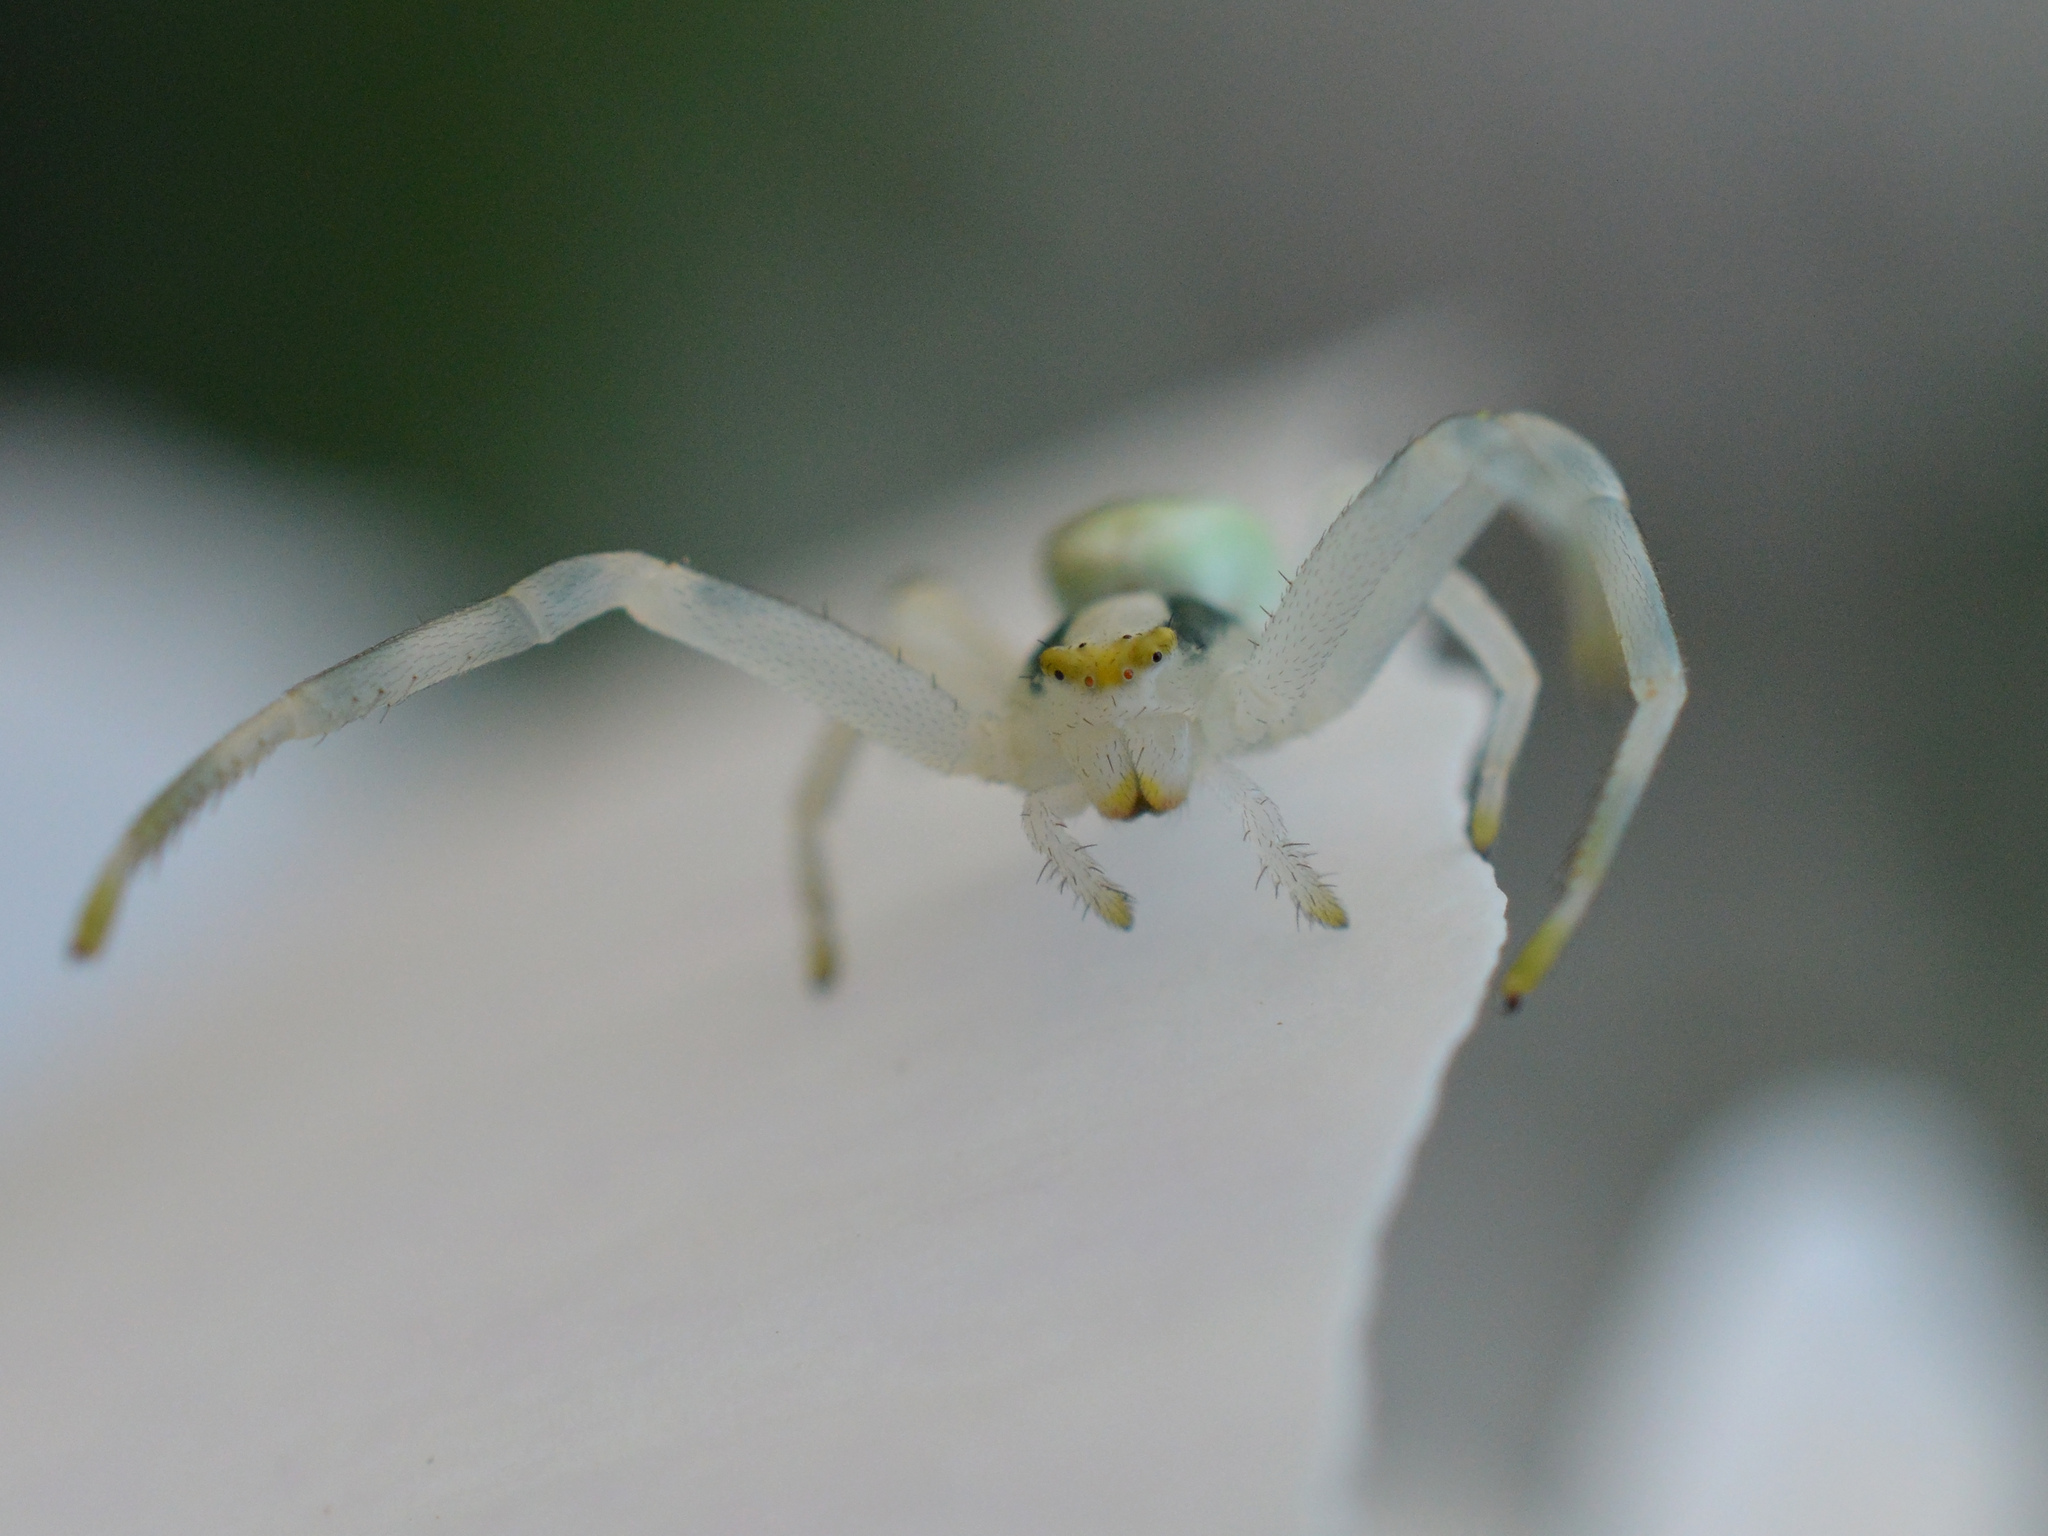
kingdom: Animalia
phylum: Arthropoda
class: Arachnida
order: Araneae
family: Thomisidae
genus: Misumena
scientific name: Misumena vatia
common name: Goldenrod crab spider
